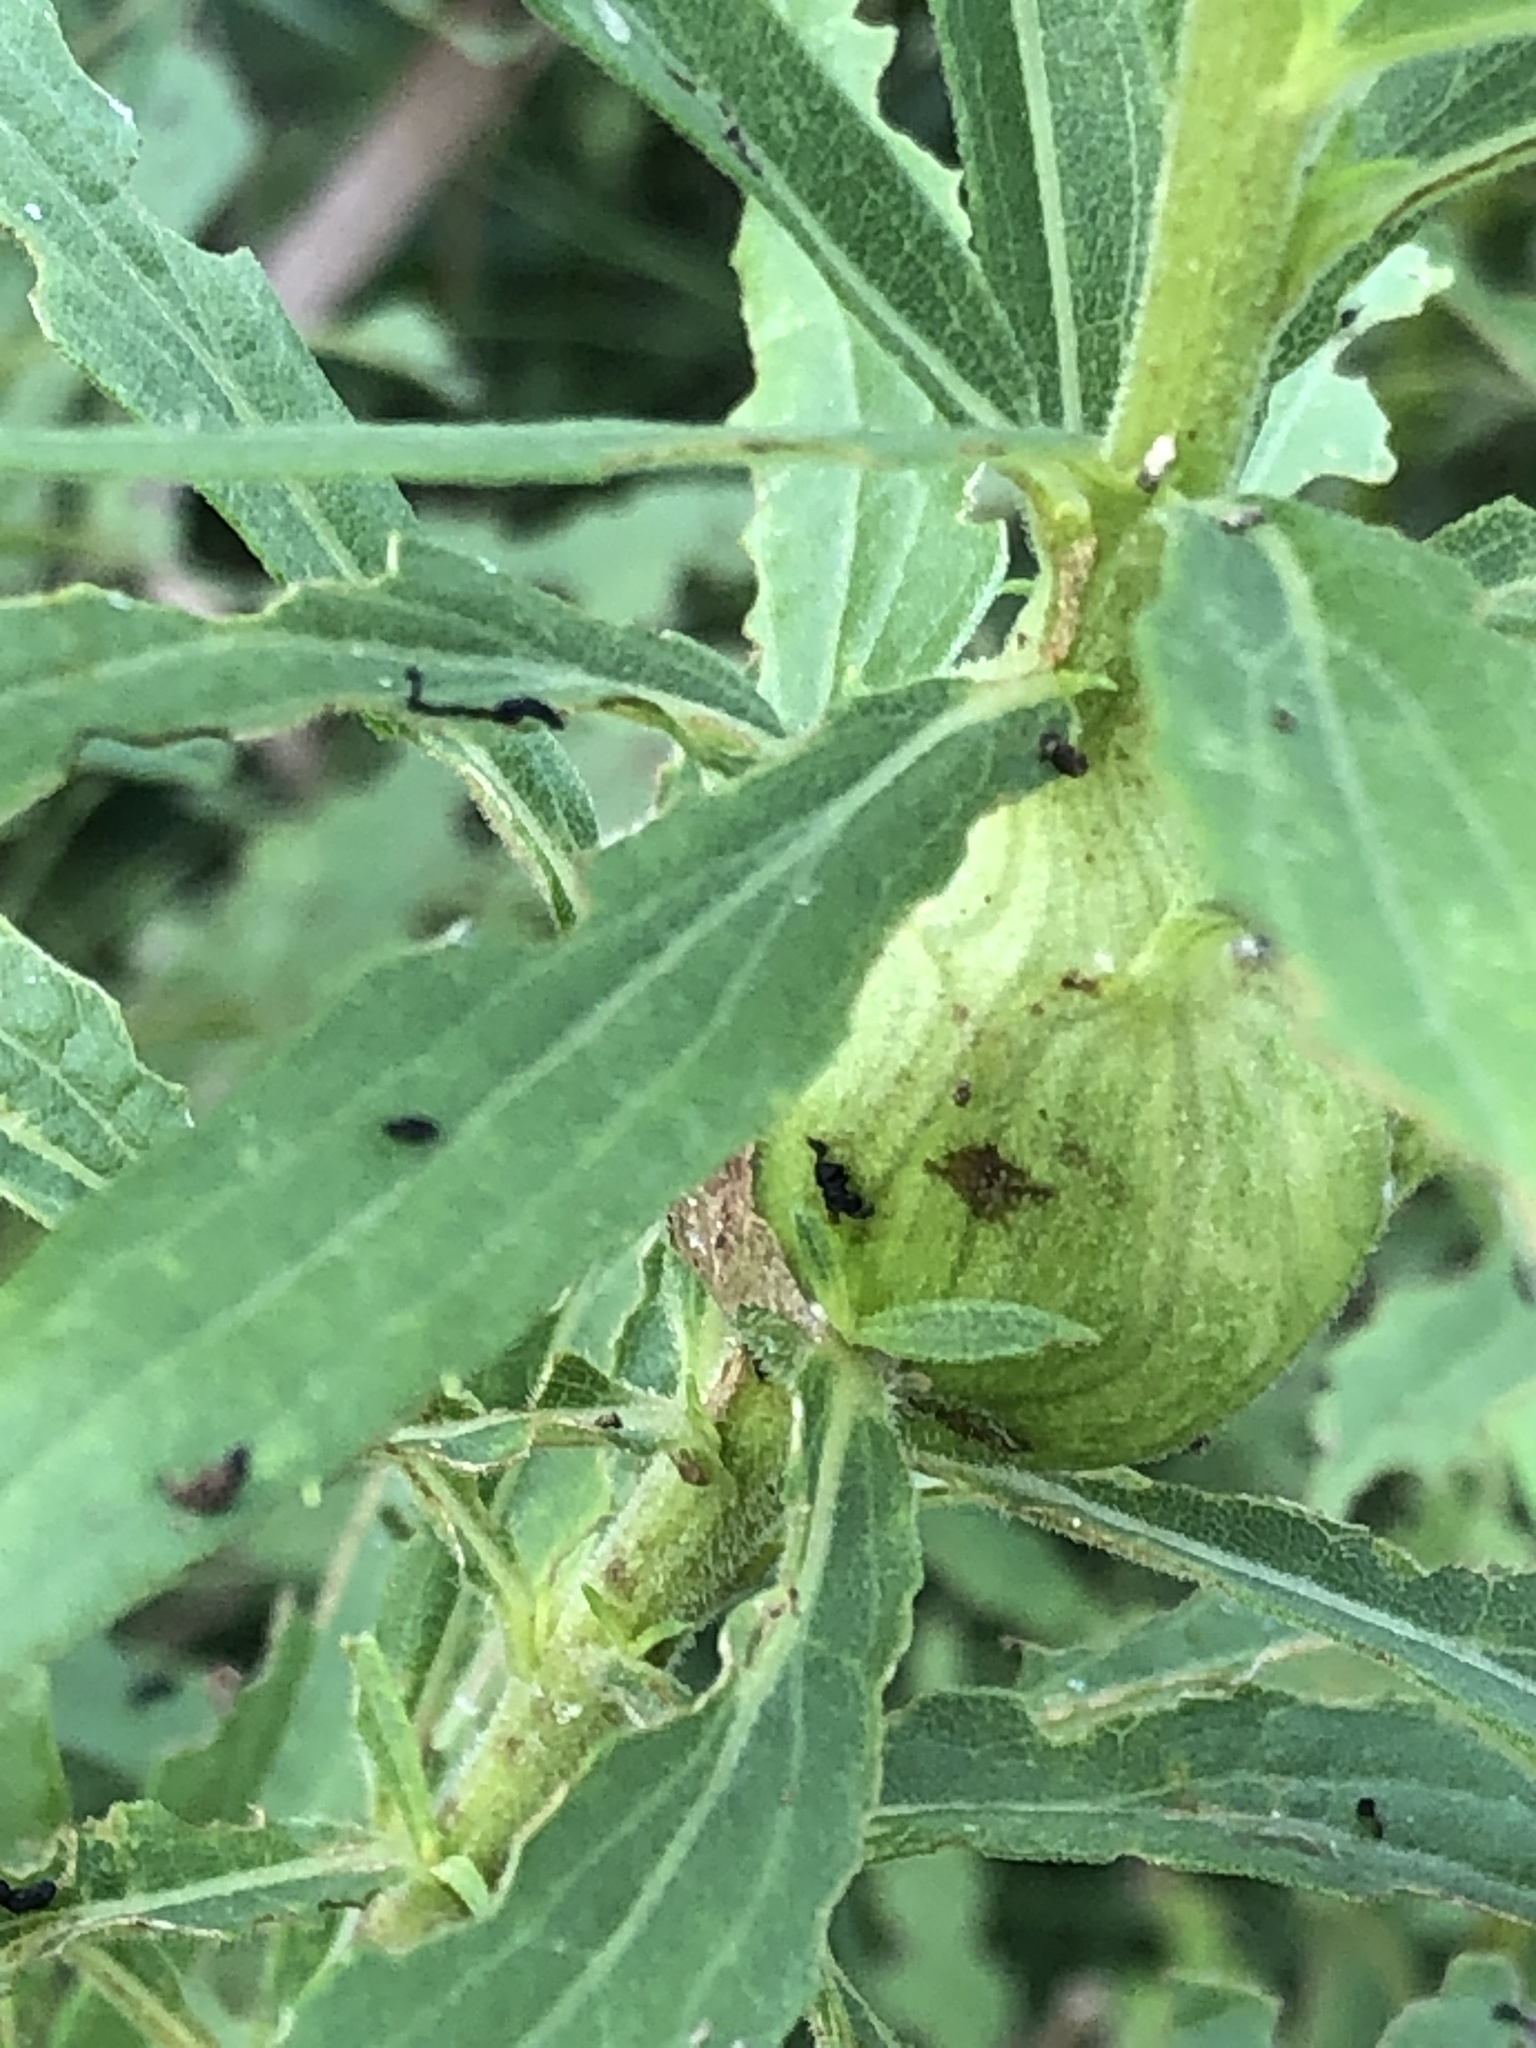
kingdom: Animalia
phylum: Arthropoda
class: Insecta
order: Diptera
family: Tephritidae
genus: Eurosta
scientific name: Eurosta solidaginis
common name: Goldenrod gall fly
